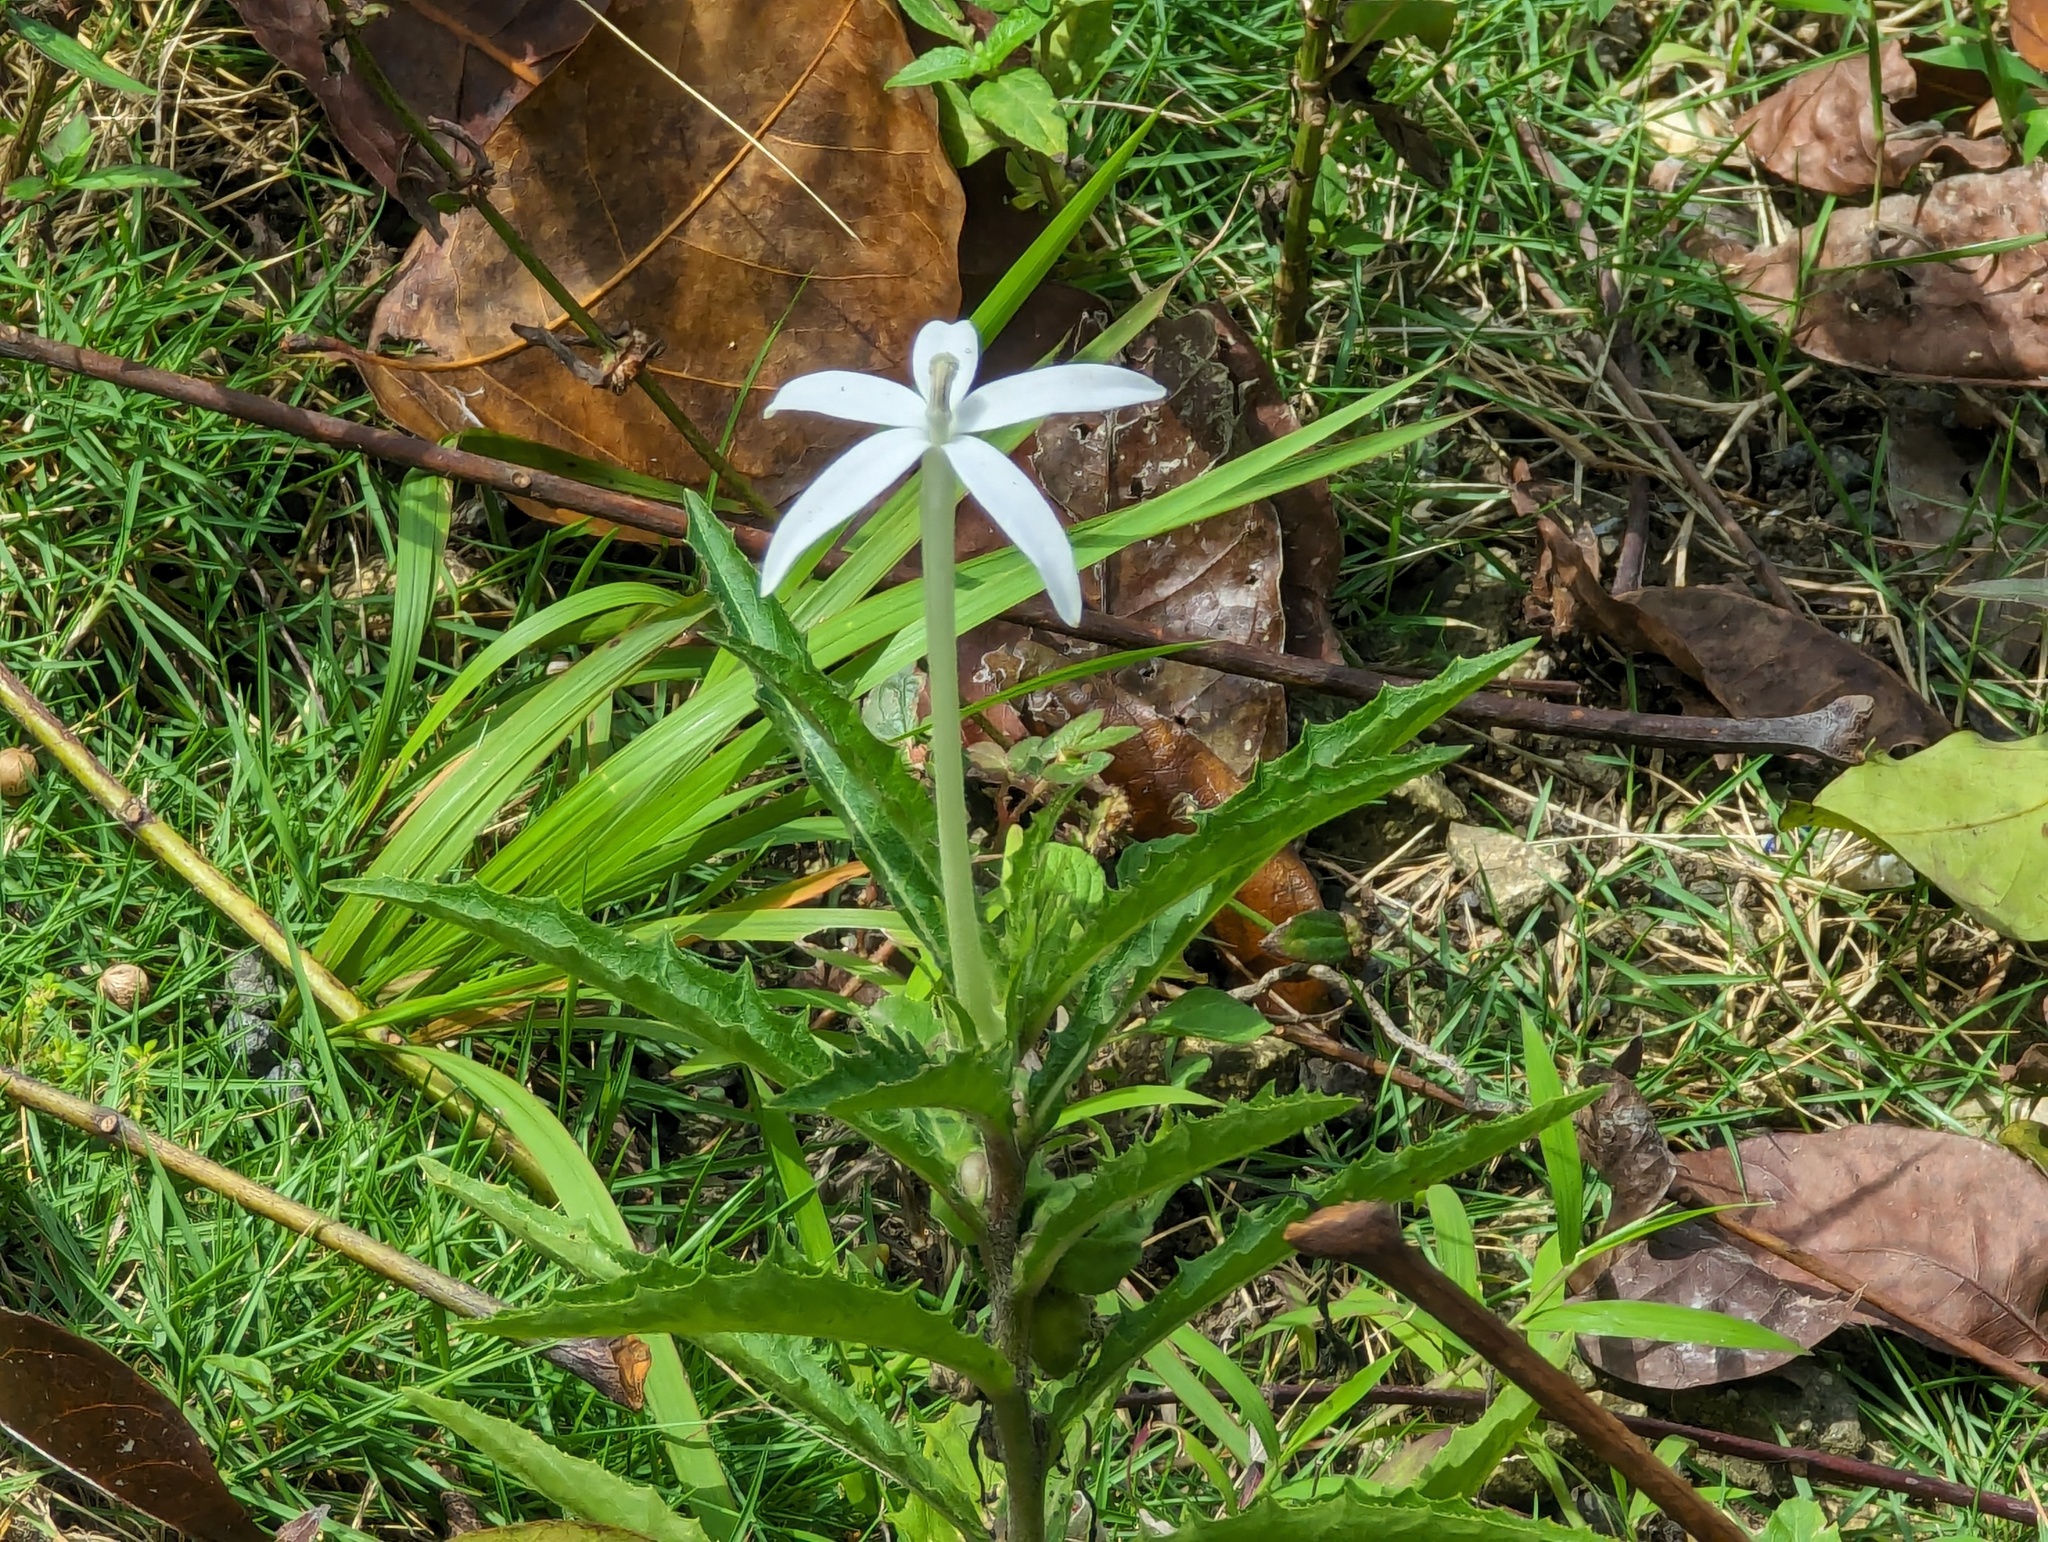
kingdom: Plantae
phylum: Tracheophyta
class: Magnoliopsida
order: Asterales
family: Campanulaceae
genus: Hippobroma
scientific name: Hippobroma longiflora
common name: Madamfate
